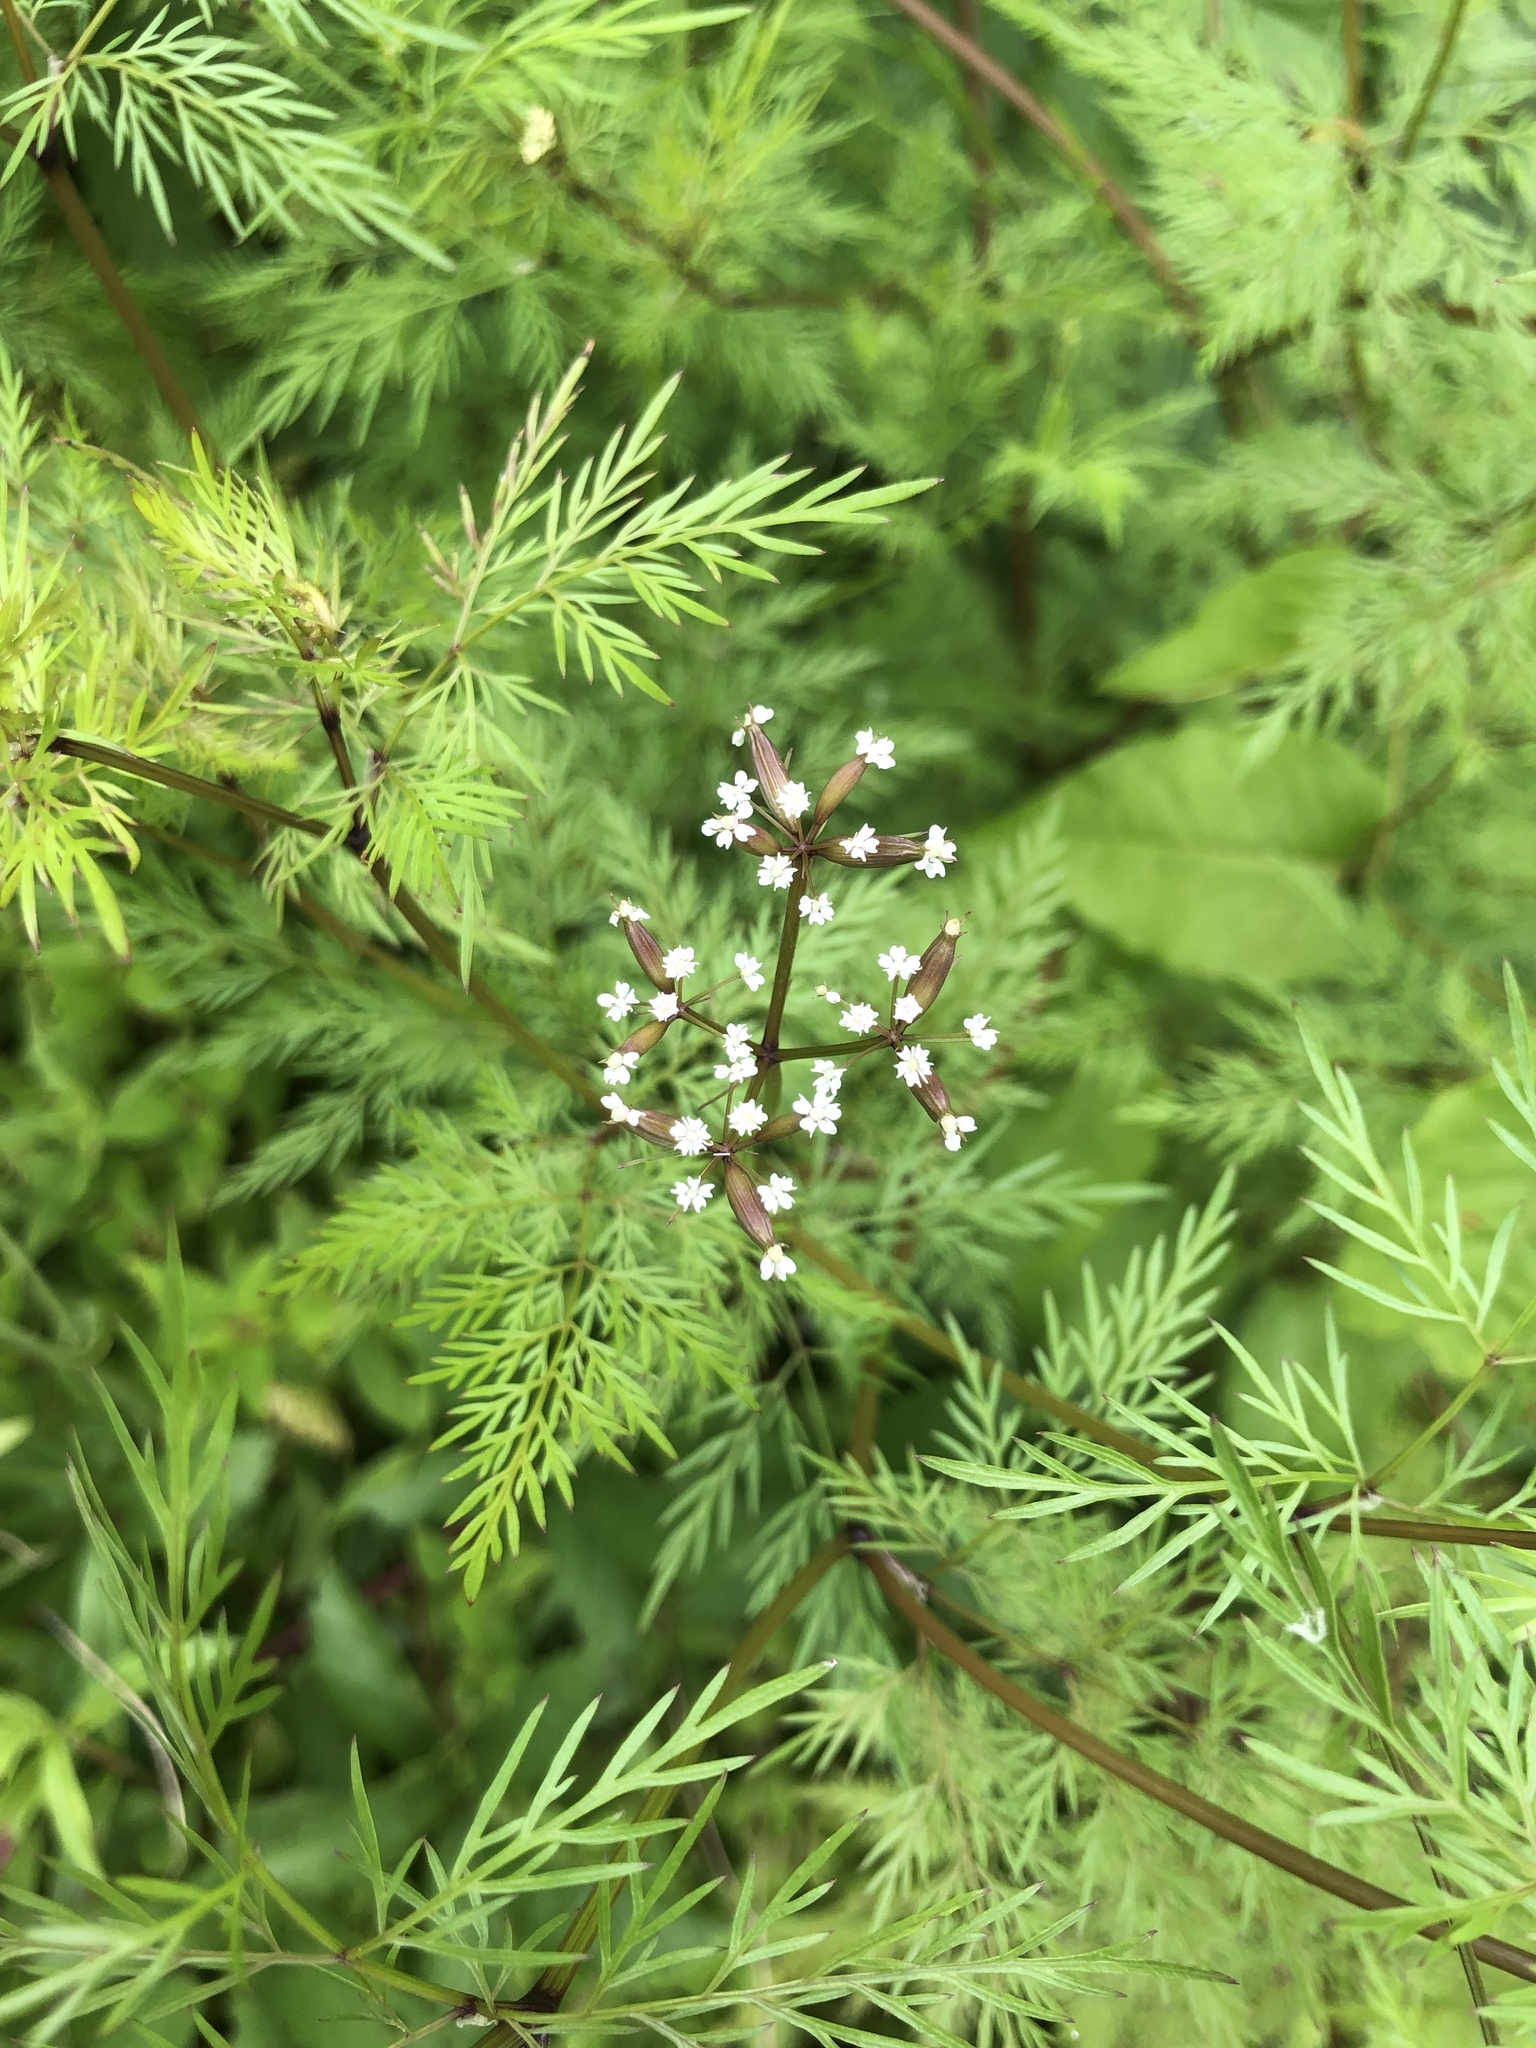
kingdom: Plantae
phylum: Tracheophyta
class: Magnoliopsida
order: Apiales
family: Apiaceae
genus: Trepocarpus
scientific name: Trepocarpus aethusae
